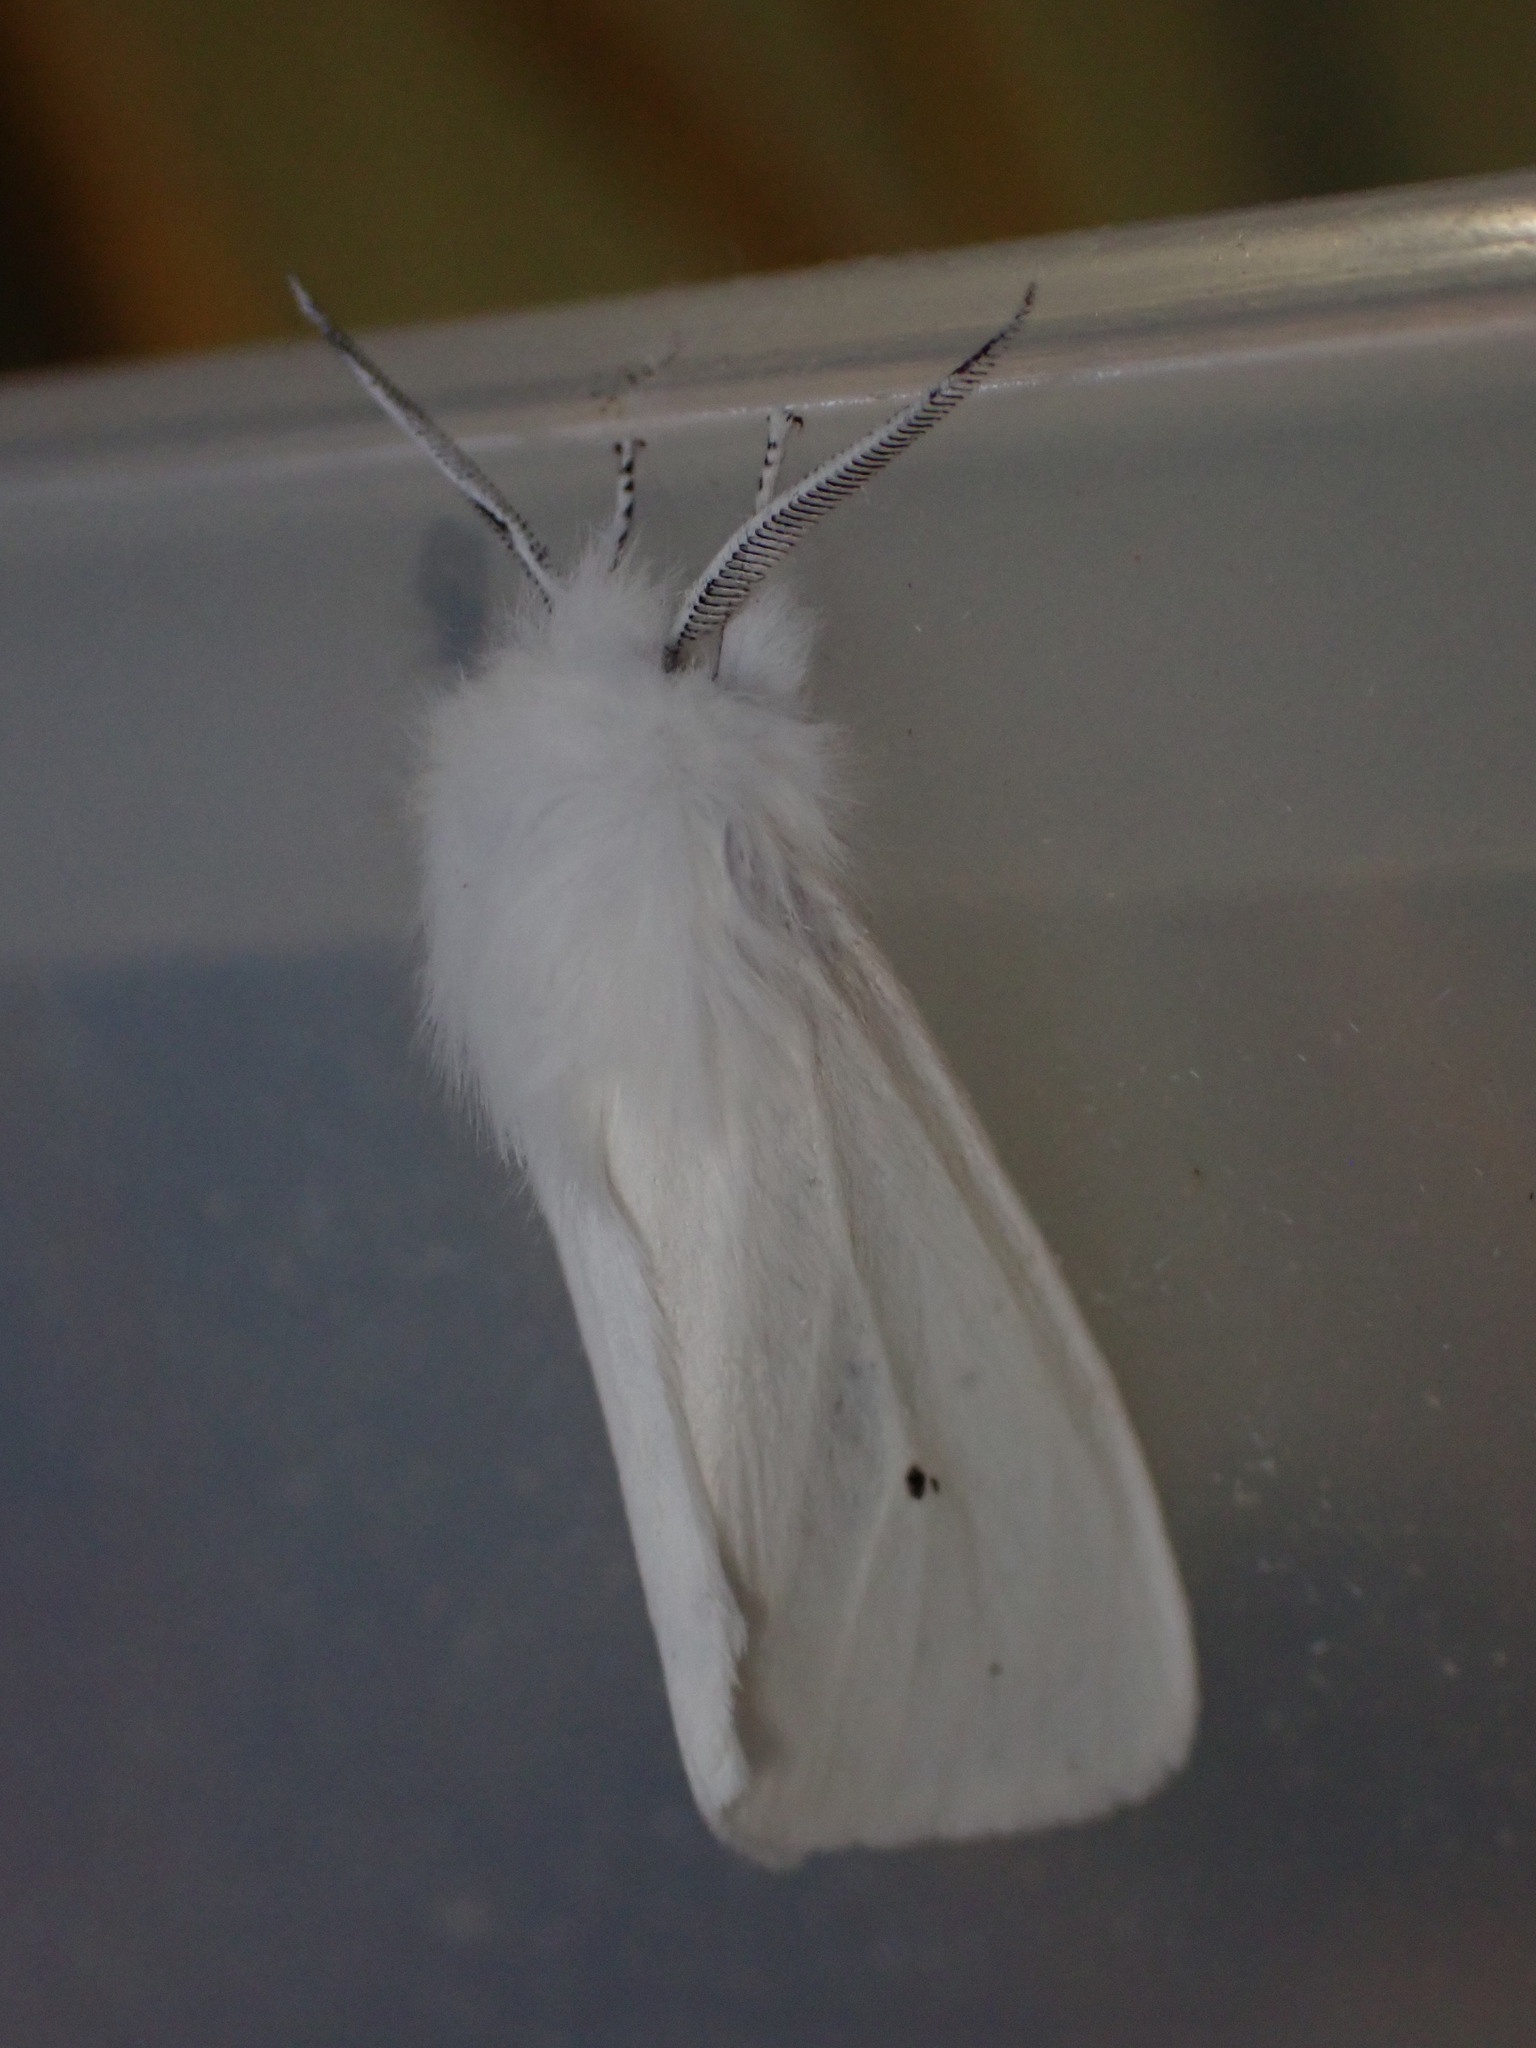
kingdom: Animalia
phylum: Arthropoda
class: Insecta
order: Lepidoptera
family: Erebidae
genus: Spilosoma
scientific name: Spilosoma virginica
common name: Virginia tiger moth
